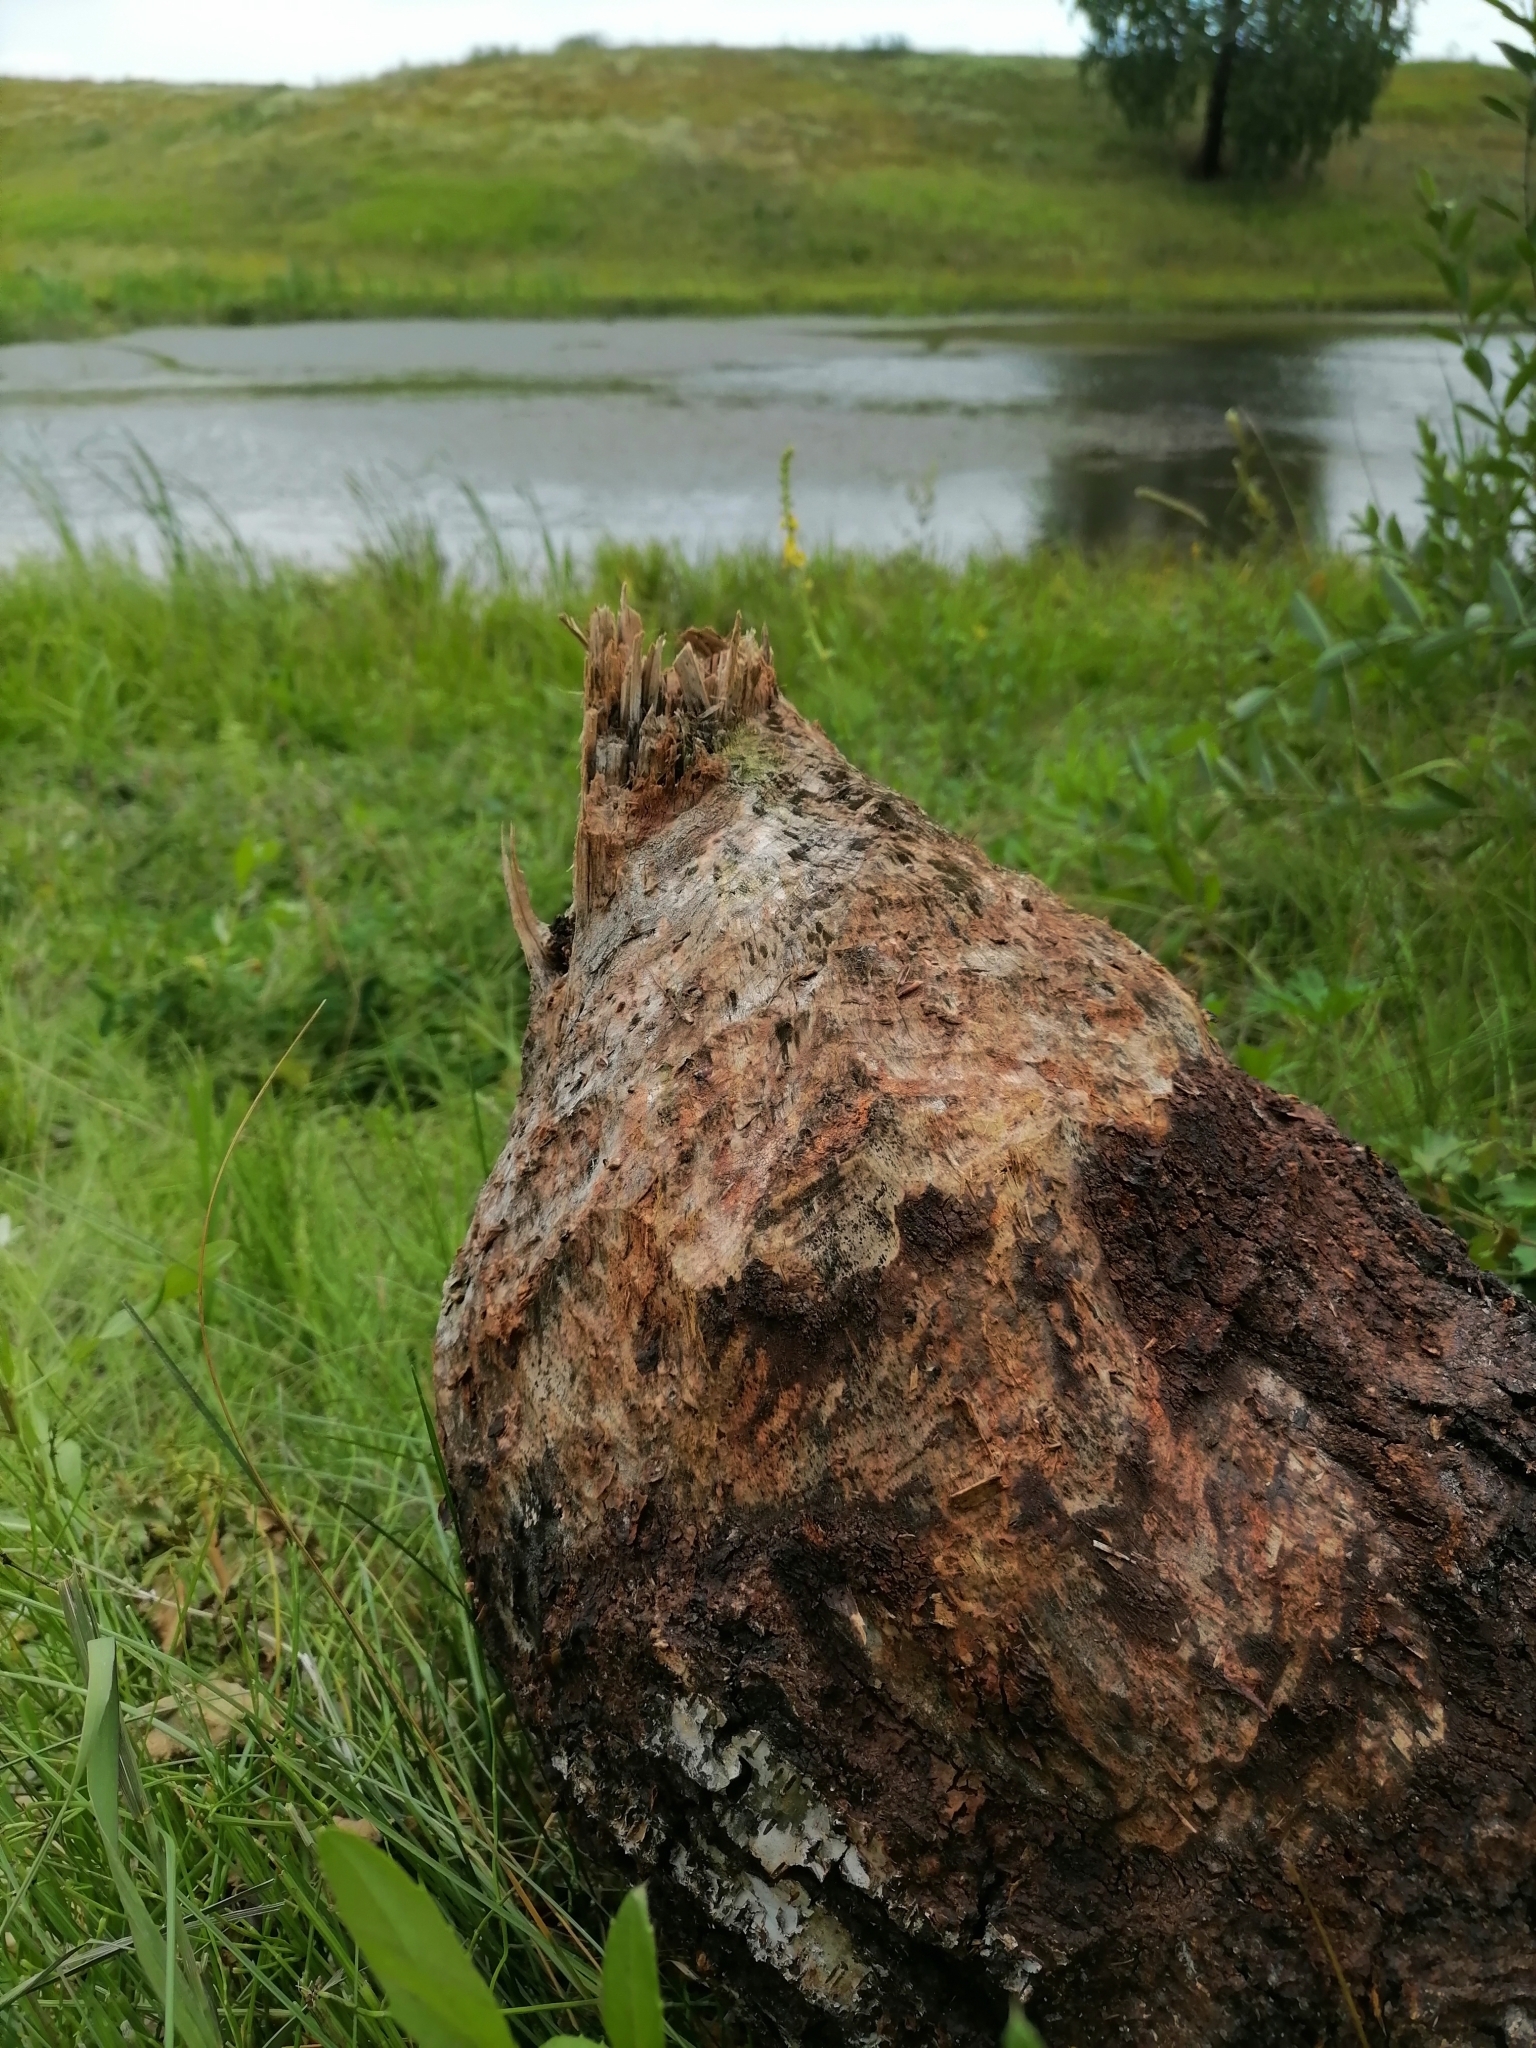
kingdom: Animalia
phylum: Chordata
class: Mammalia
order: Rodentia
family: Castoridae
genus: Castor
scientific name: Castor fiber
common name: Eurasian beaver
